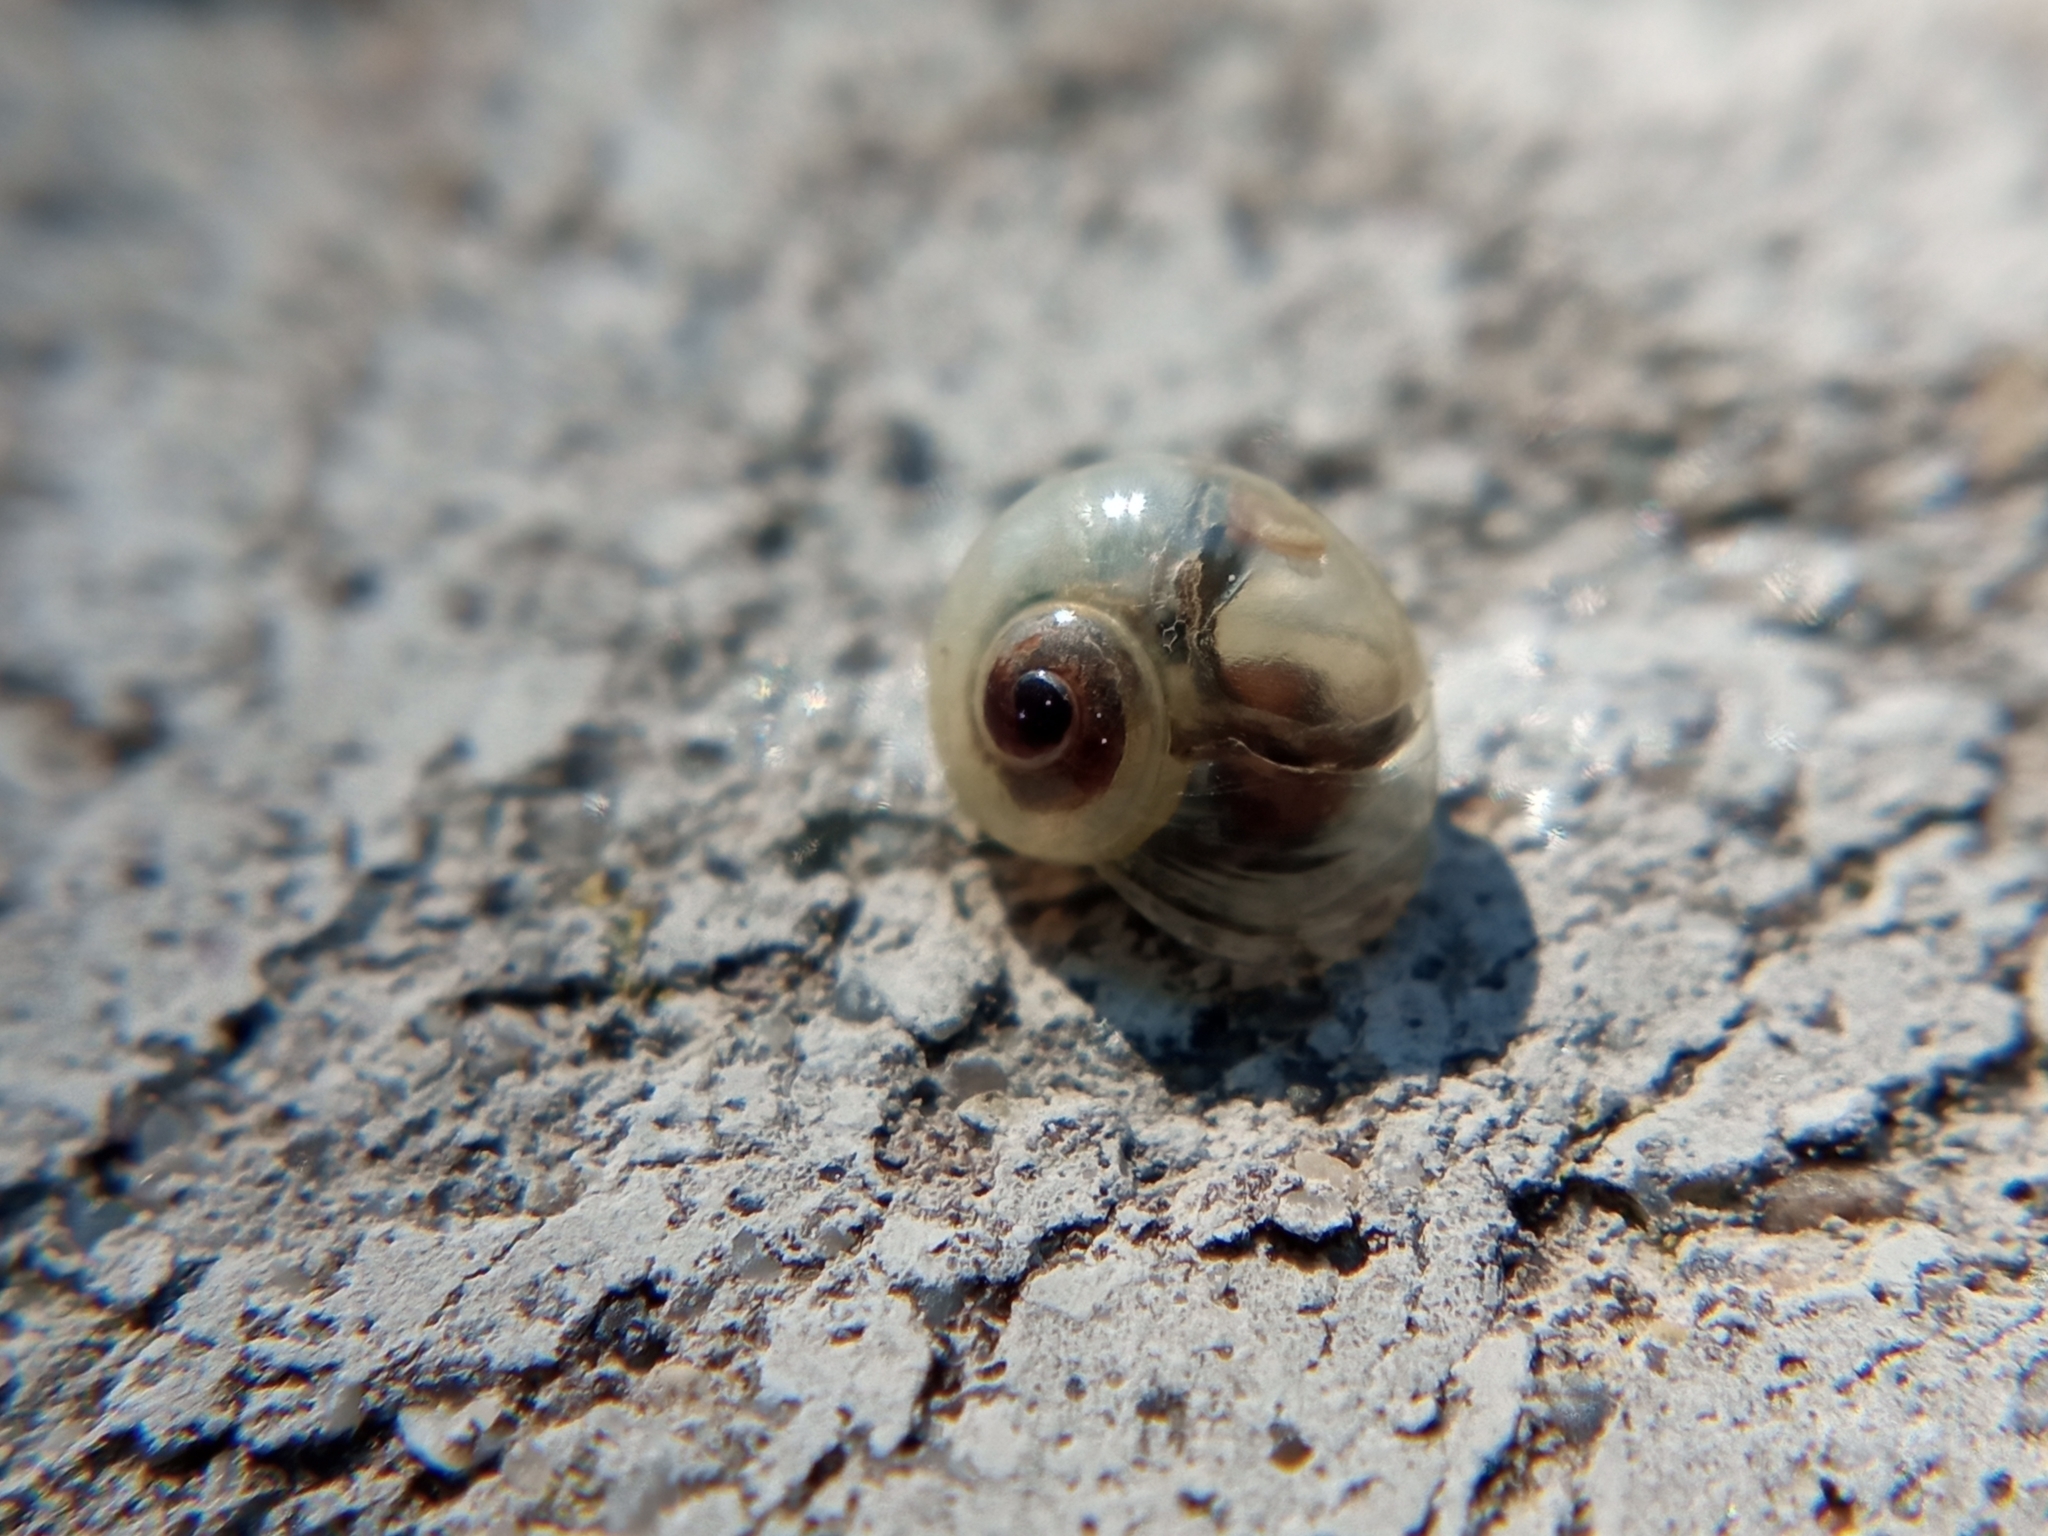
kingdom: Animalia
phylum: Mollusca
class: Gastropoda
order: Stylommatophora
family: Vitrinidae
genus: Vitrina
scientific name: Vitrina pellucida
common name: Pellucid glass snail
